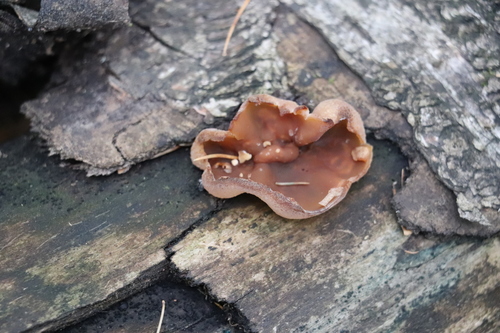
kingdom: Fungi
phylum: Ascomycota
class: Pezizomycetes
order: Pezizales
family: Pezizaceae
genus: Peziza
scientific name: Peziza varia
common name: Layered cup
